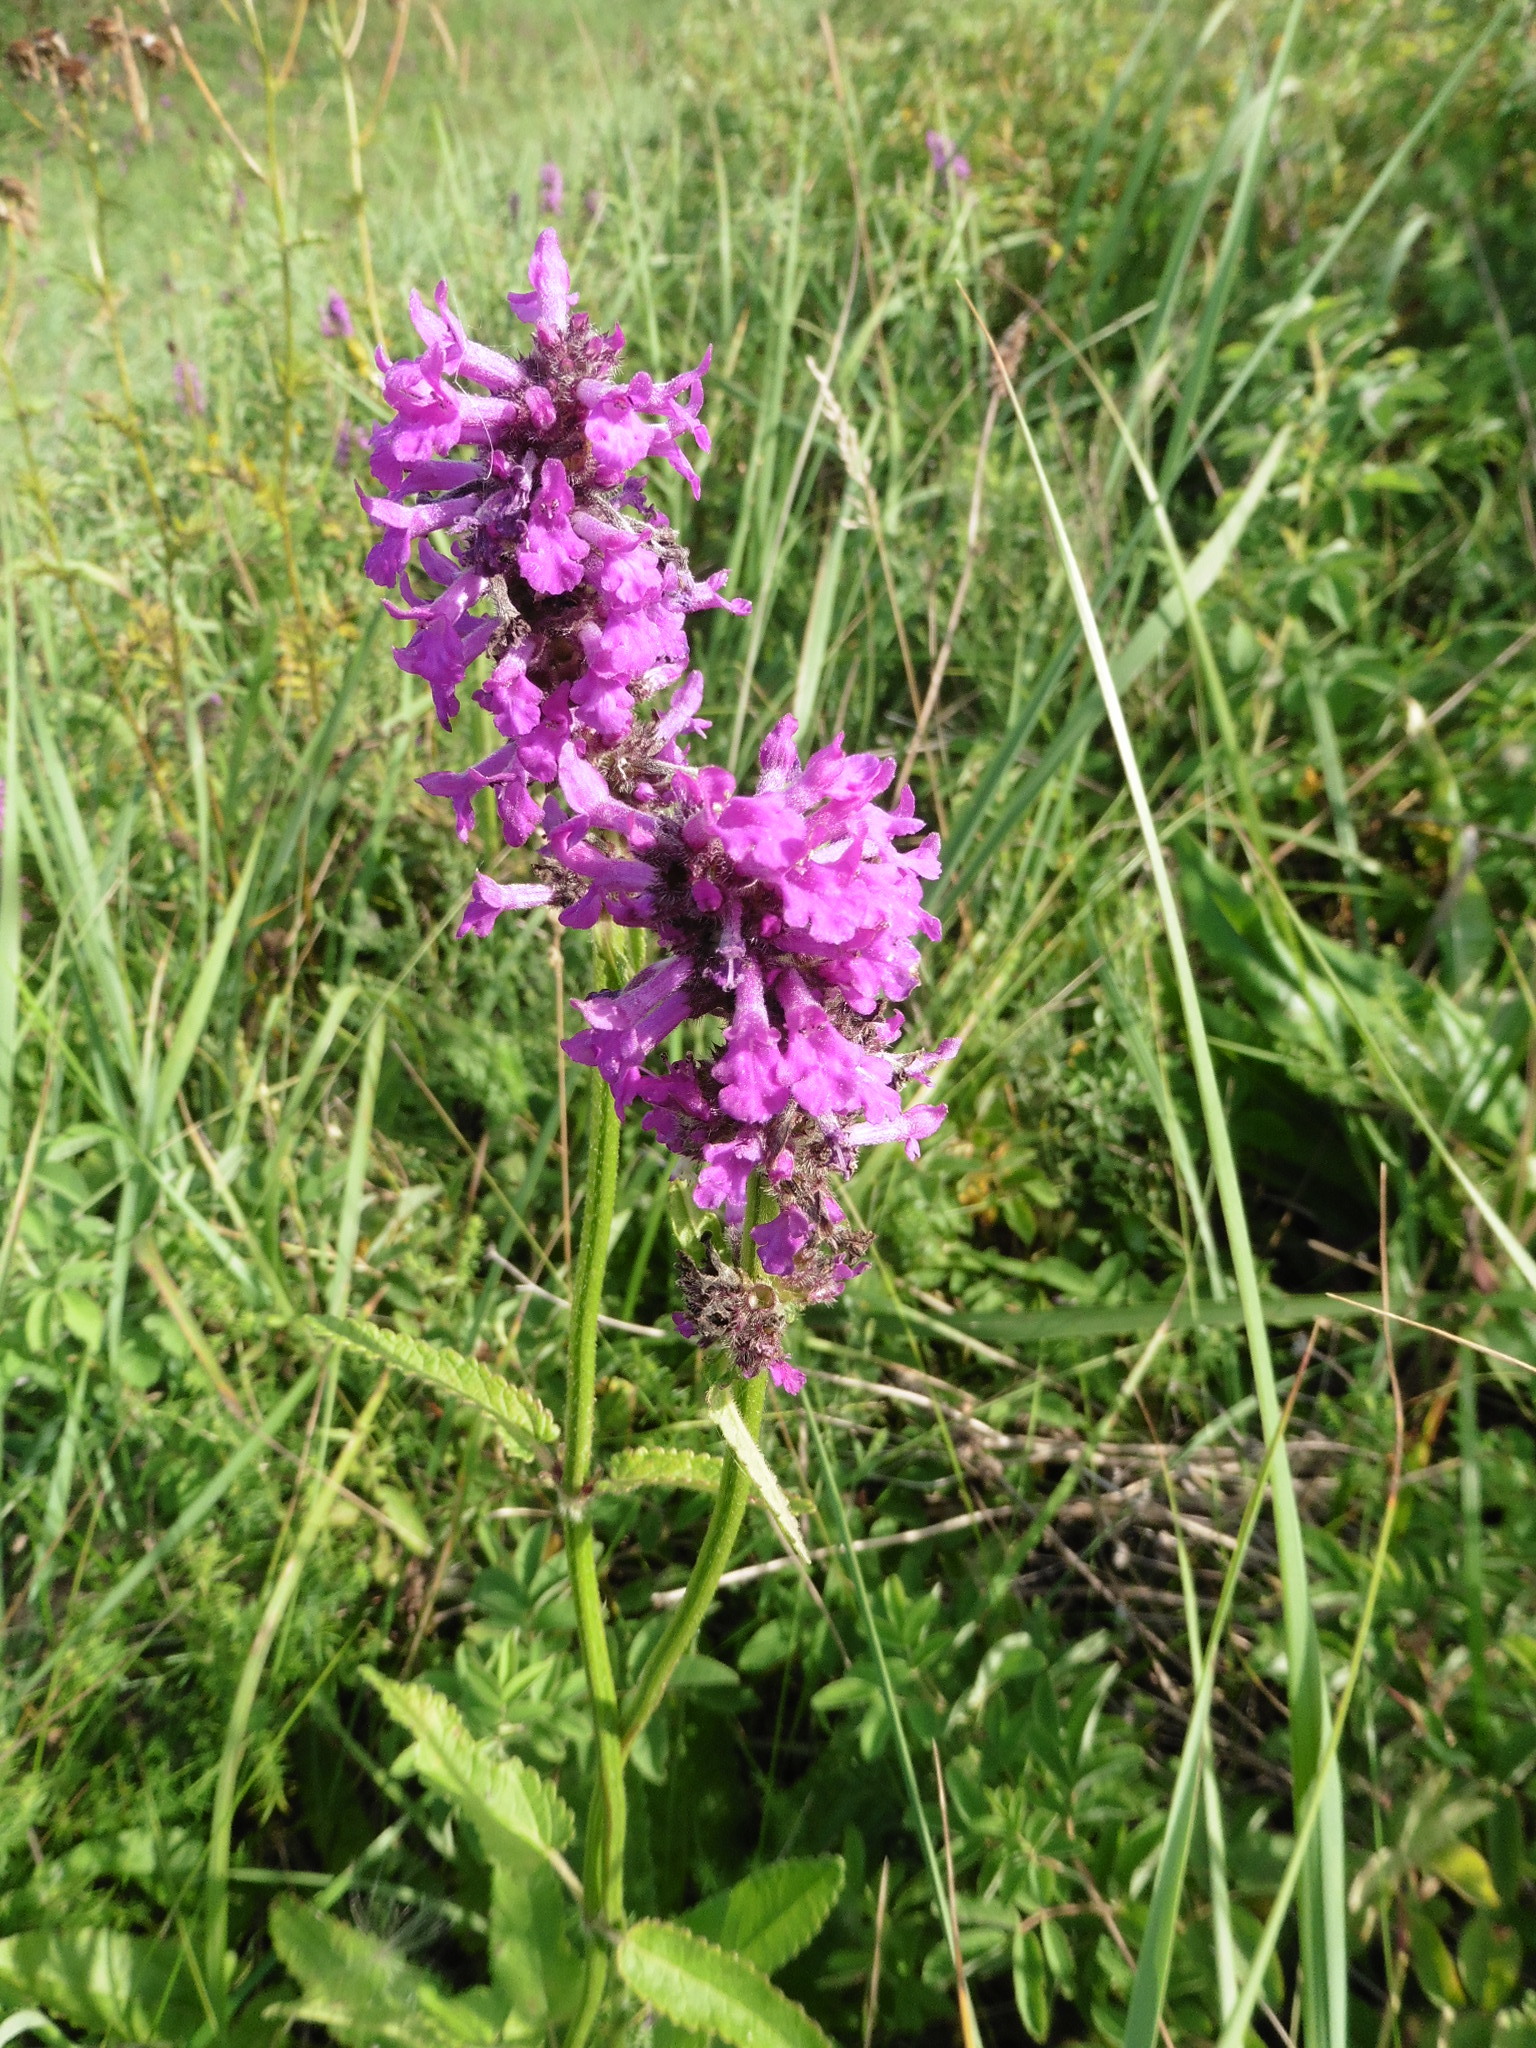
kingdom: Plantae
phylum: Tracheophyta
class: Magnoliopsida
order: Lamiales
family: Lamiaceae
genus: Betonica
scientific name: Betonica officinalis
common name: Bishop's-wort
